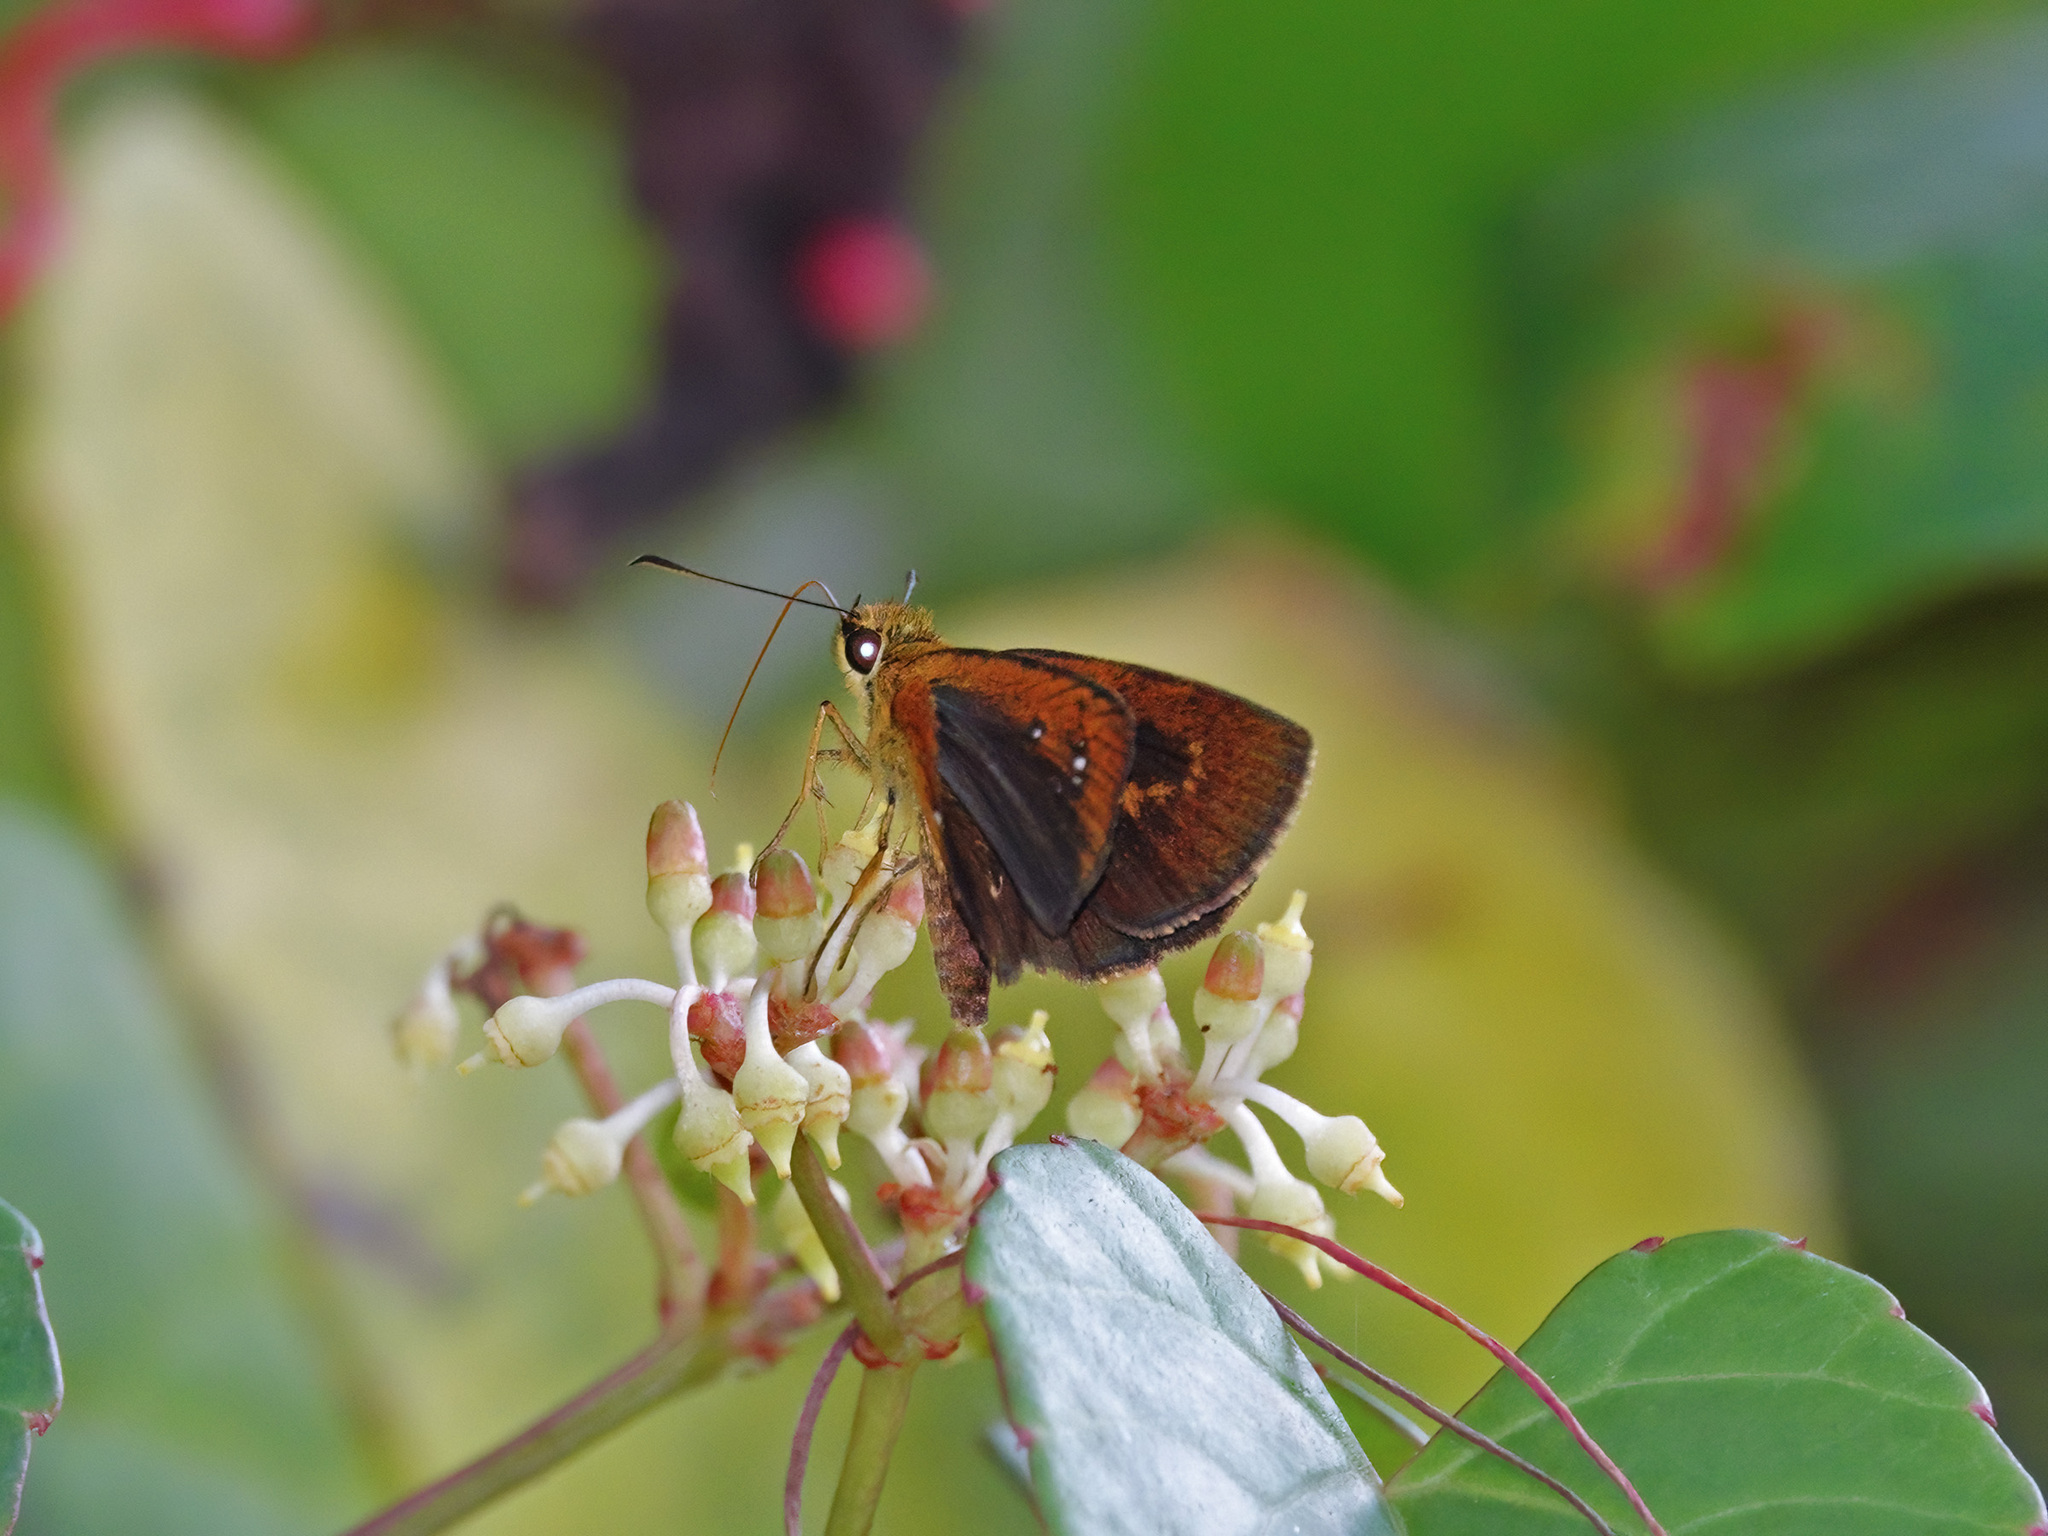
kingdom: Animalia
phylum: Arthropoda
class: Insecta
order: Lepidoptera
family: Hesperiidae
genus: Iambrix
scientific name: Iambrix salsala
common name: Chestnut bob
